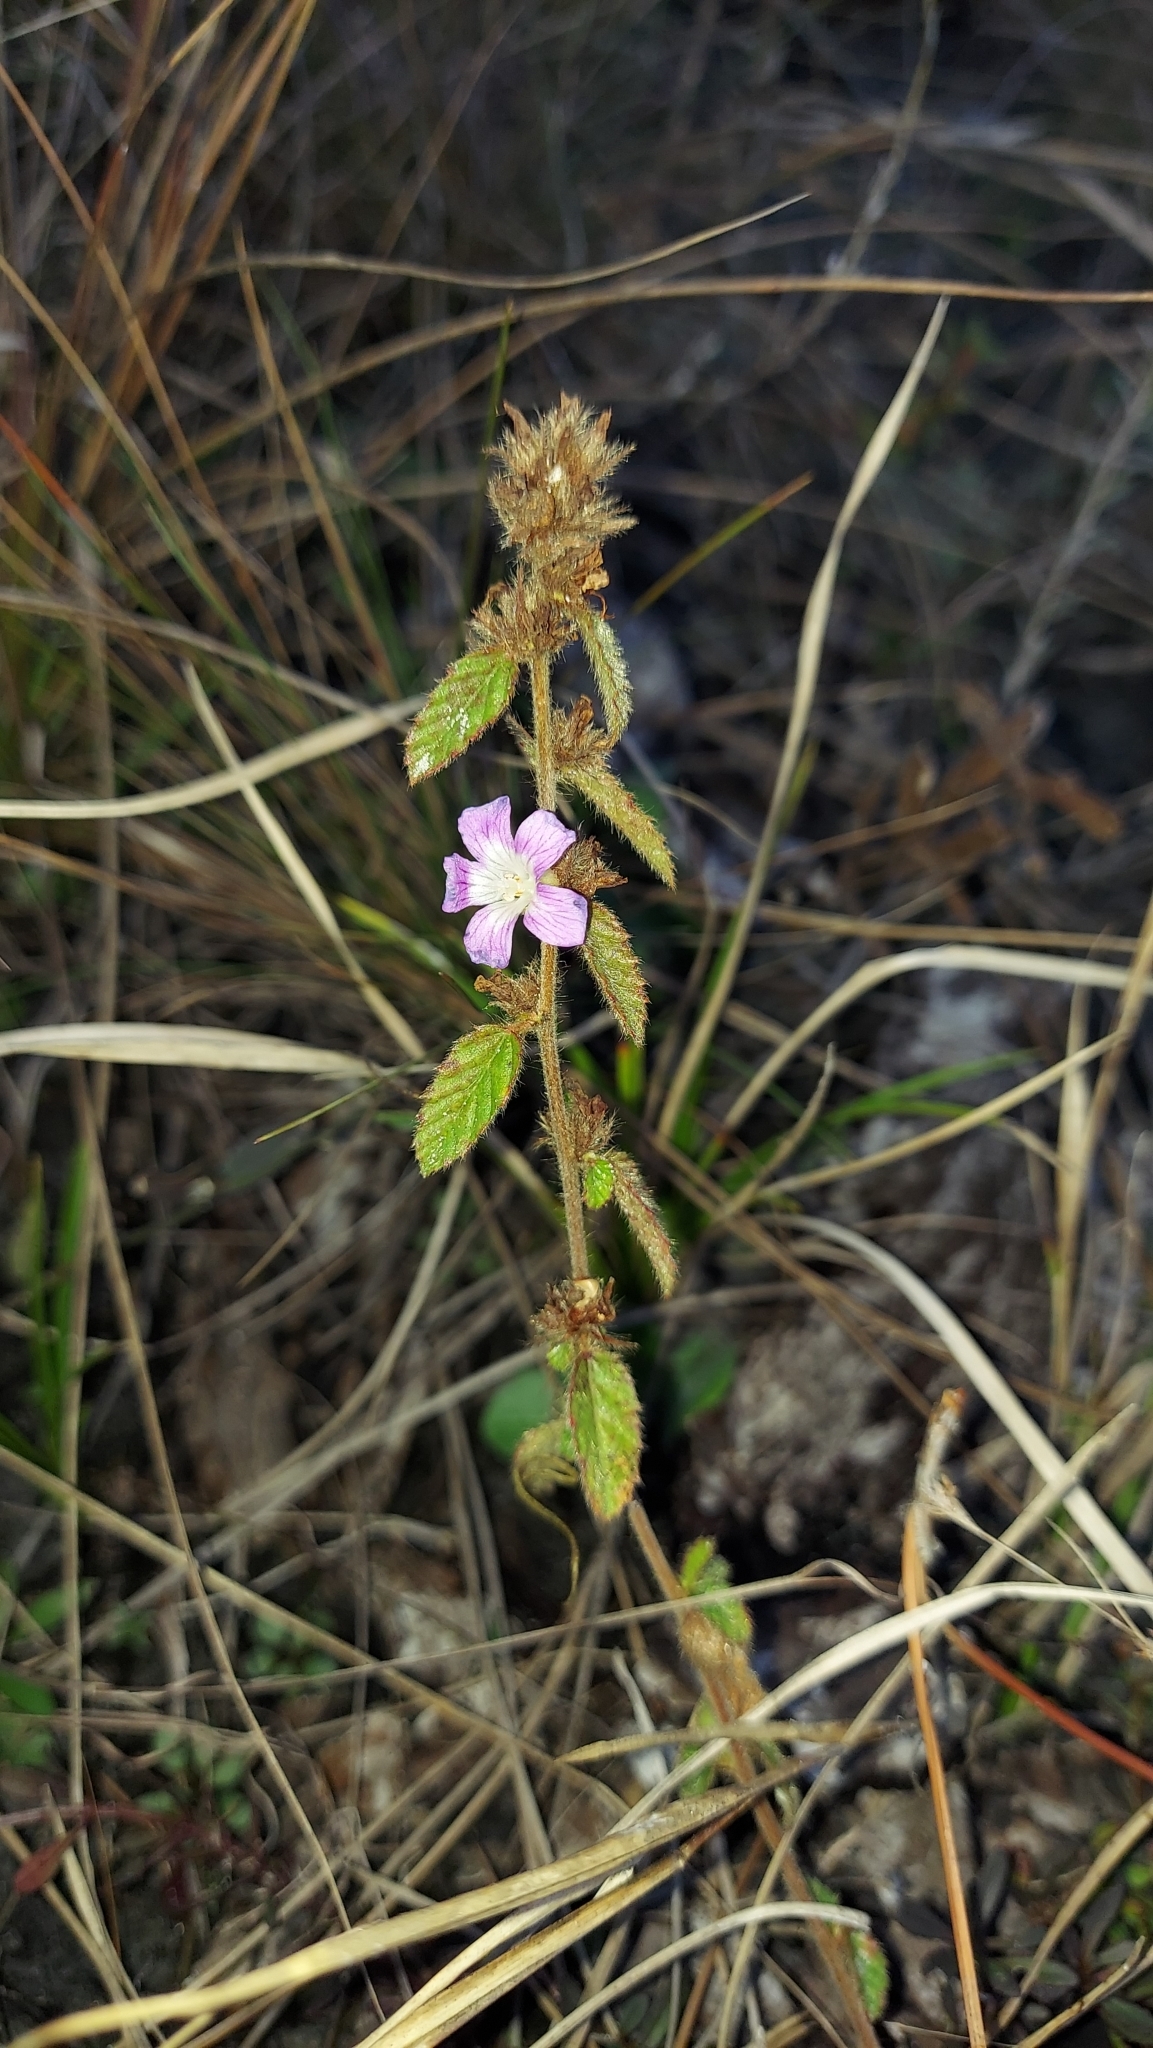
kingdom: Plantae
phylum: Tracheophyta
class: Magnoliopsida
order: Malvales
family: Malvaceae
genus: Melochia
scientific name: Melochia spicata
